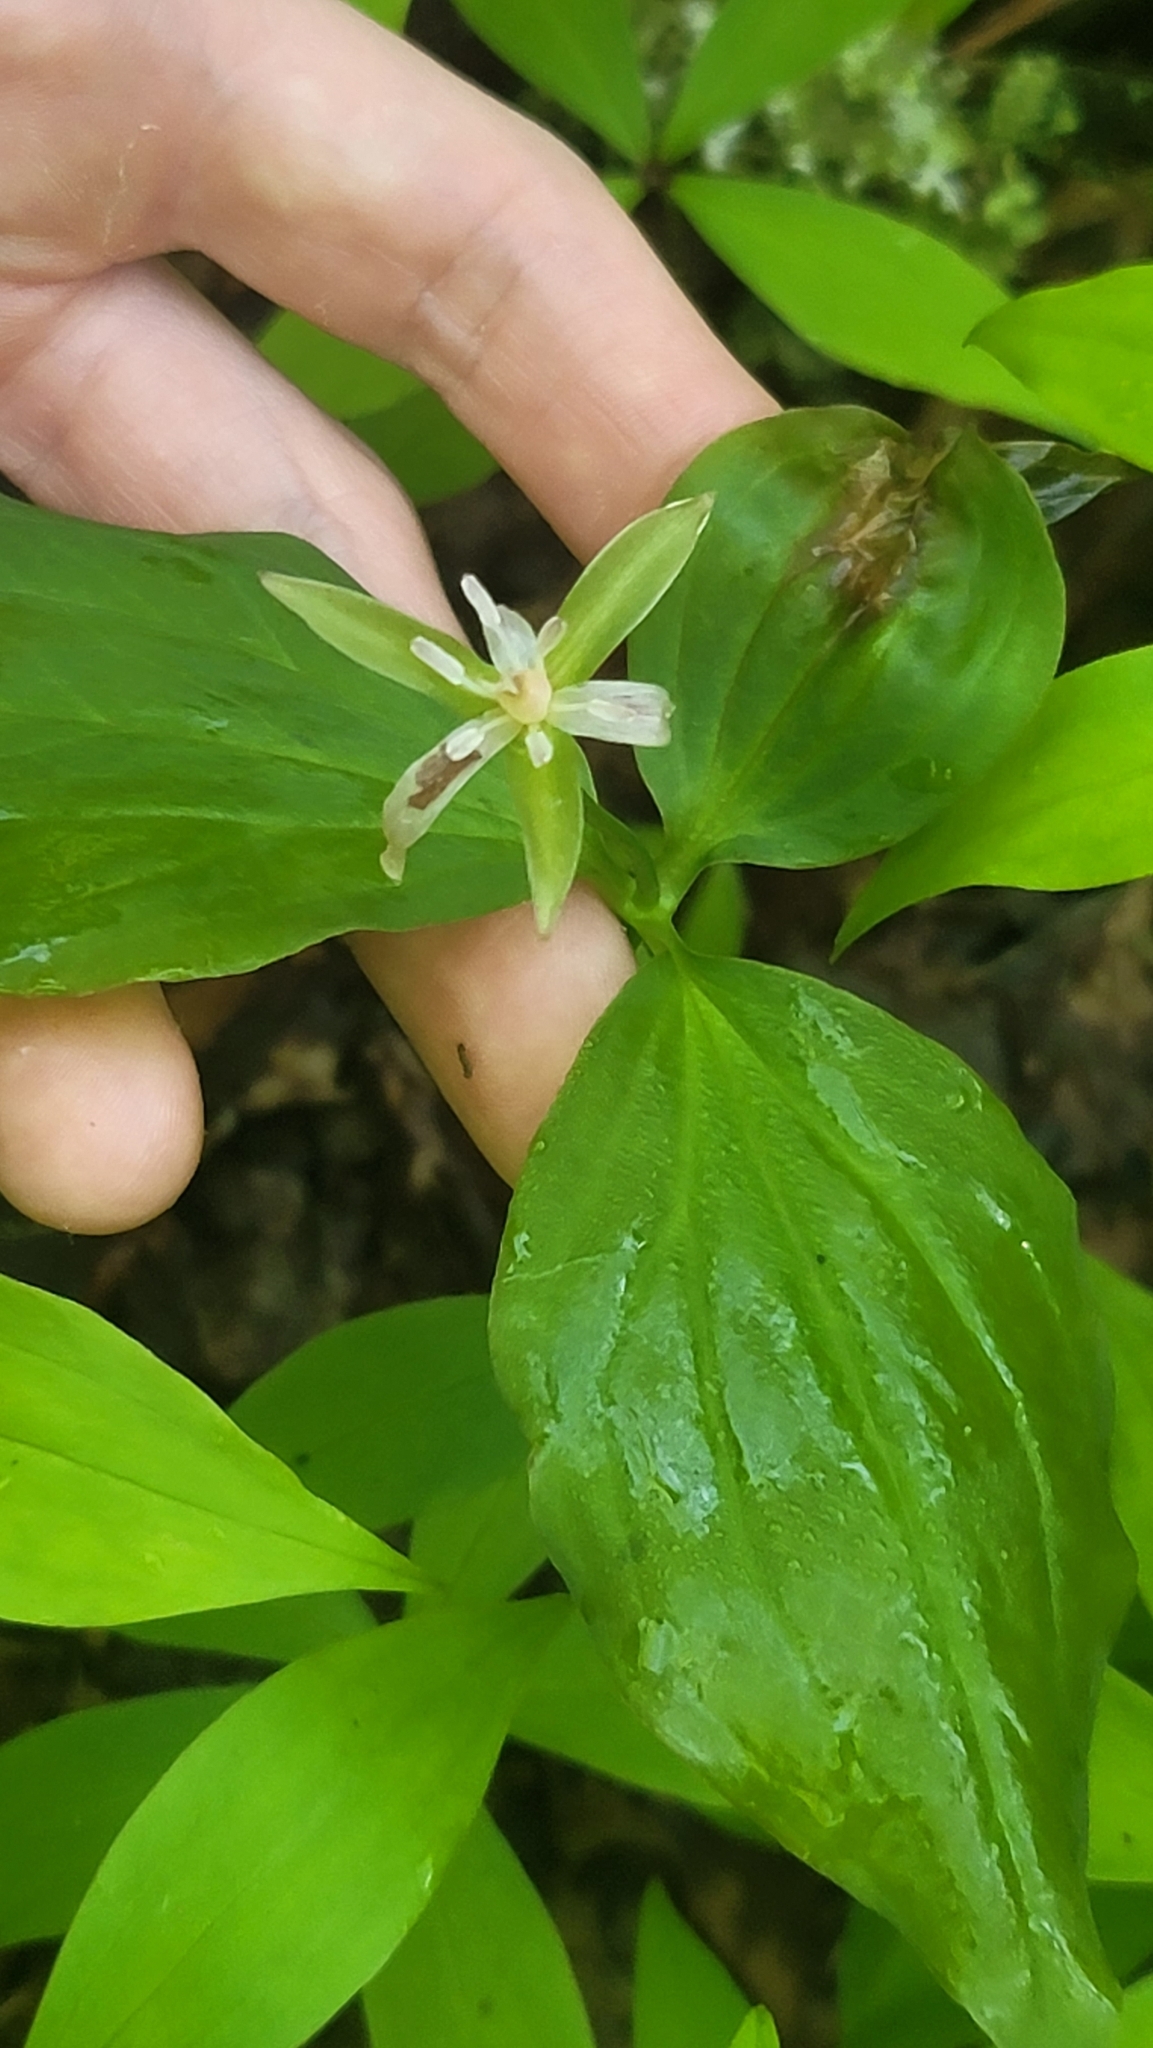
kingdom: Plantae
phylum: Tracheophyta
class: Liliopsida
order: Liliales
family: Melanthiaceae
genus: Trillium
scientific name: Trillium undulatum
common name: Paint trillium
